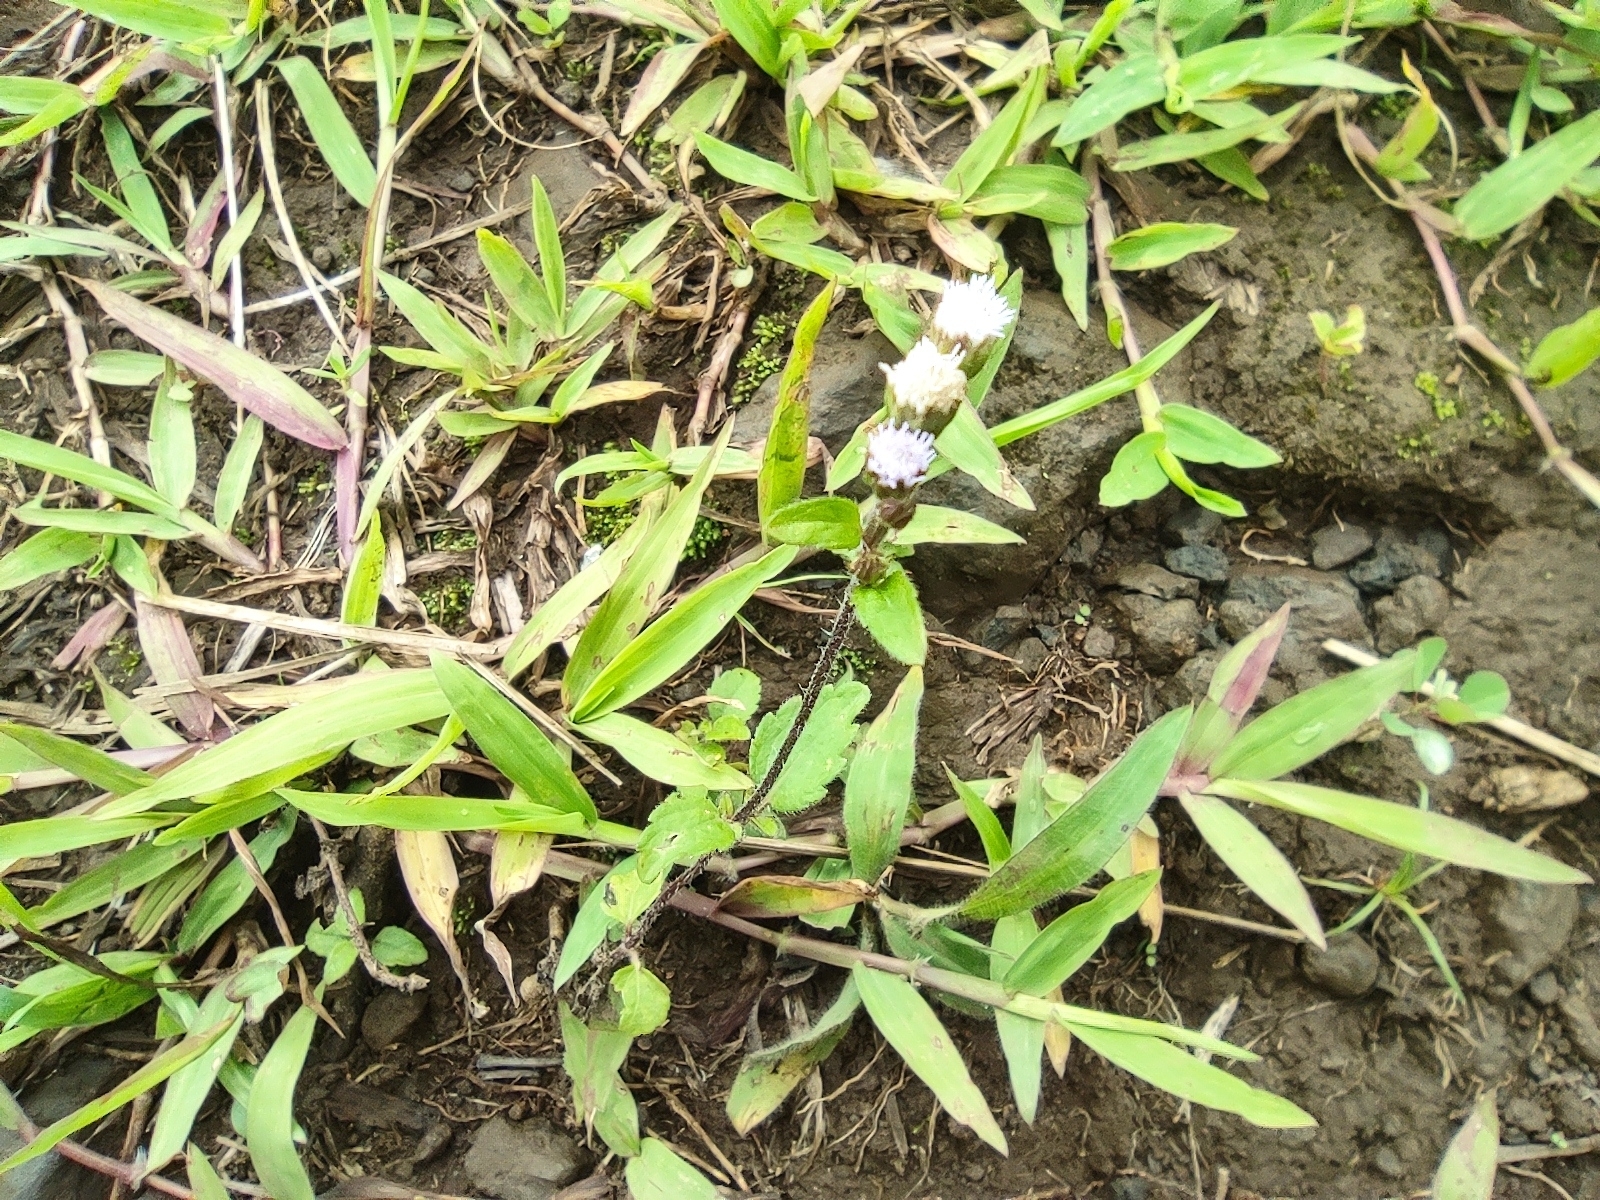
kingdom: Plantae
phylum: Tracheophyta
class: Magnoliopsida
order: Asterales
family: Asteraceae
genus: Ageratum
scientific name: Ageratum conyzoides
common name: Tropical whiteweed
